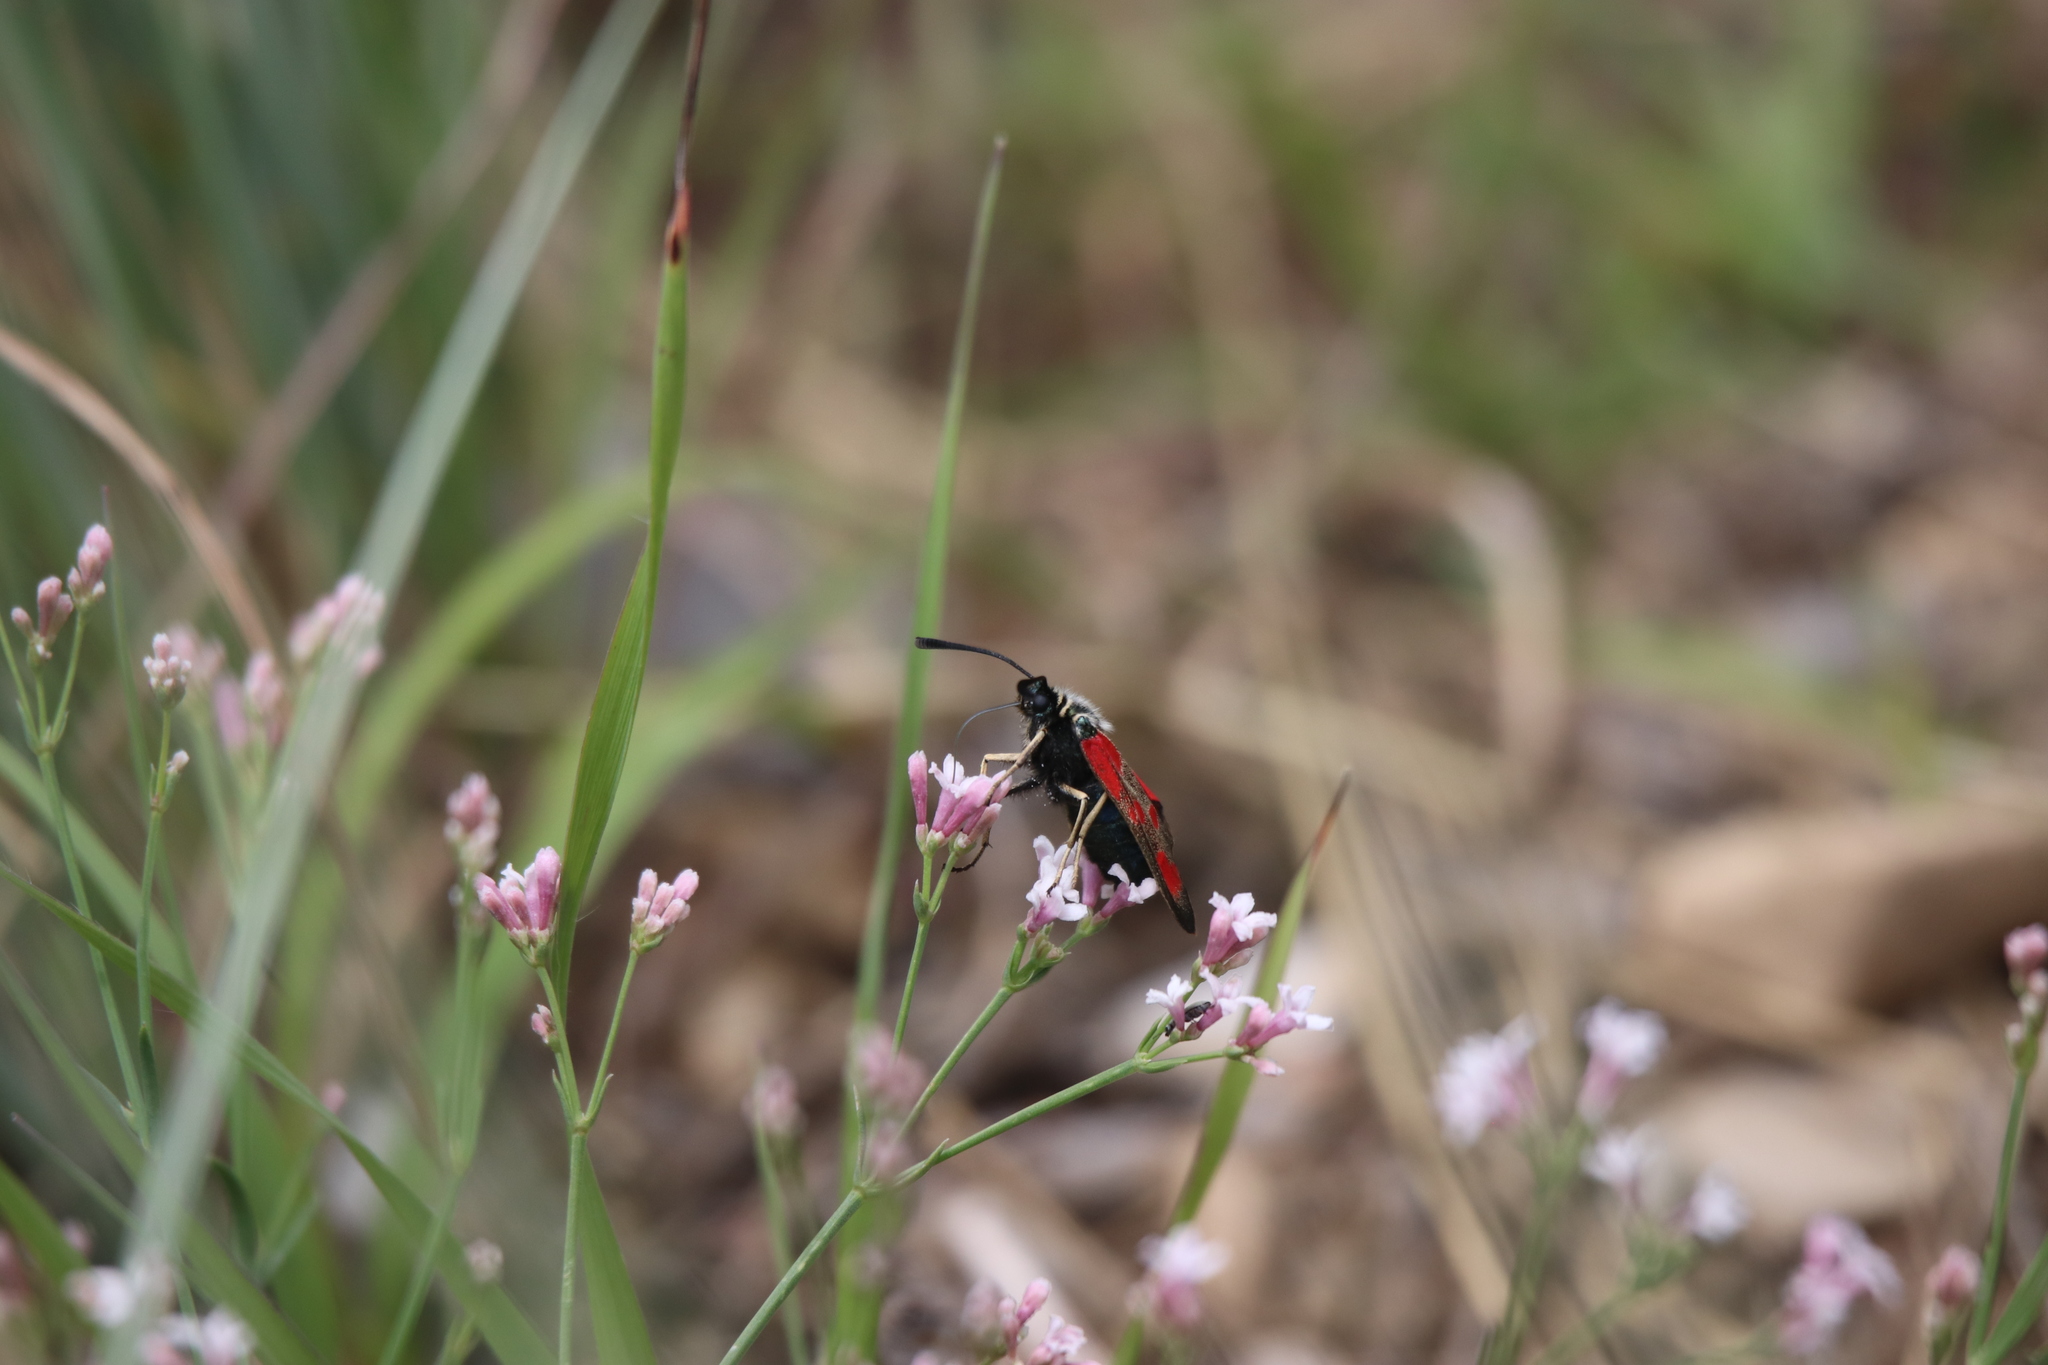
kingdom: Animalia
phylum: Arthropoda
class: Insecta
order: Lepidoptera
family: Zygaenidae
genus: Zygaena
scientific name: Zygaena loti
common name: Slender scotch burnet
